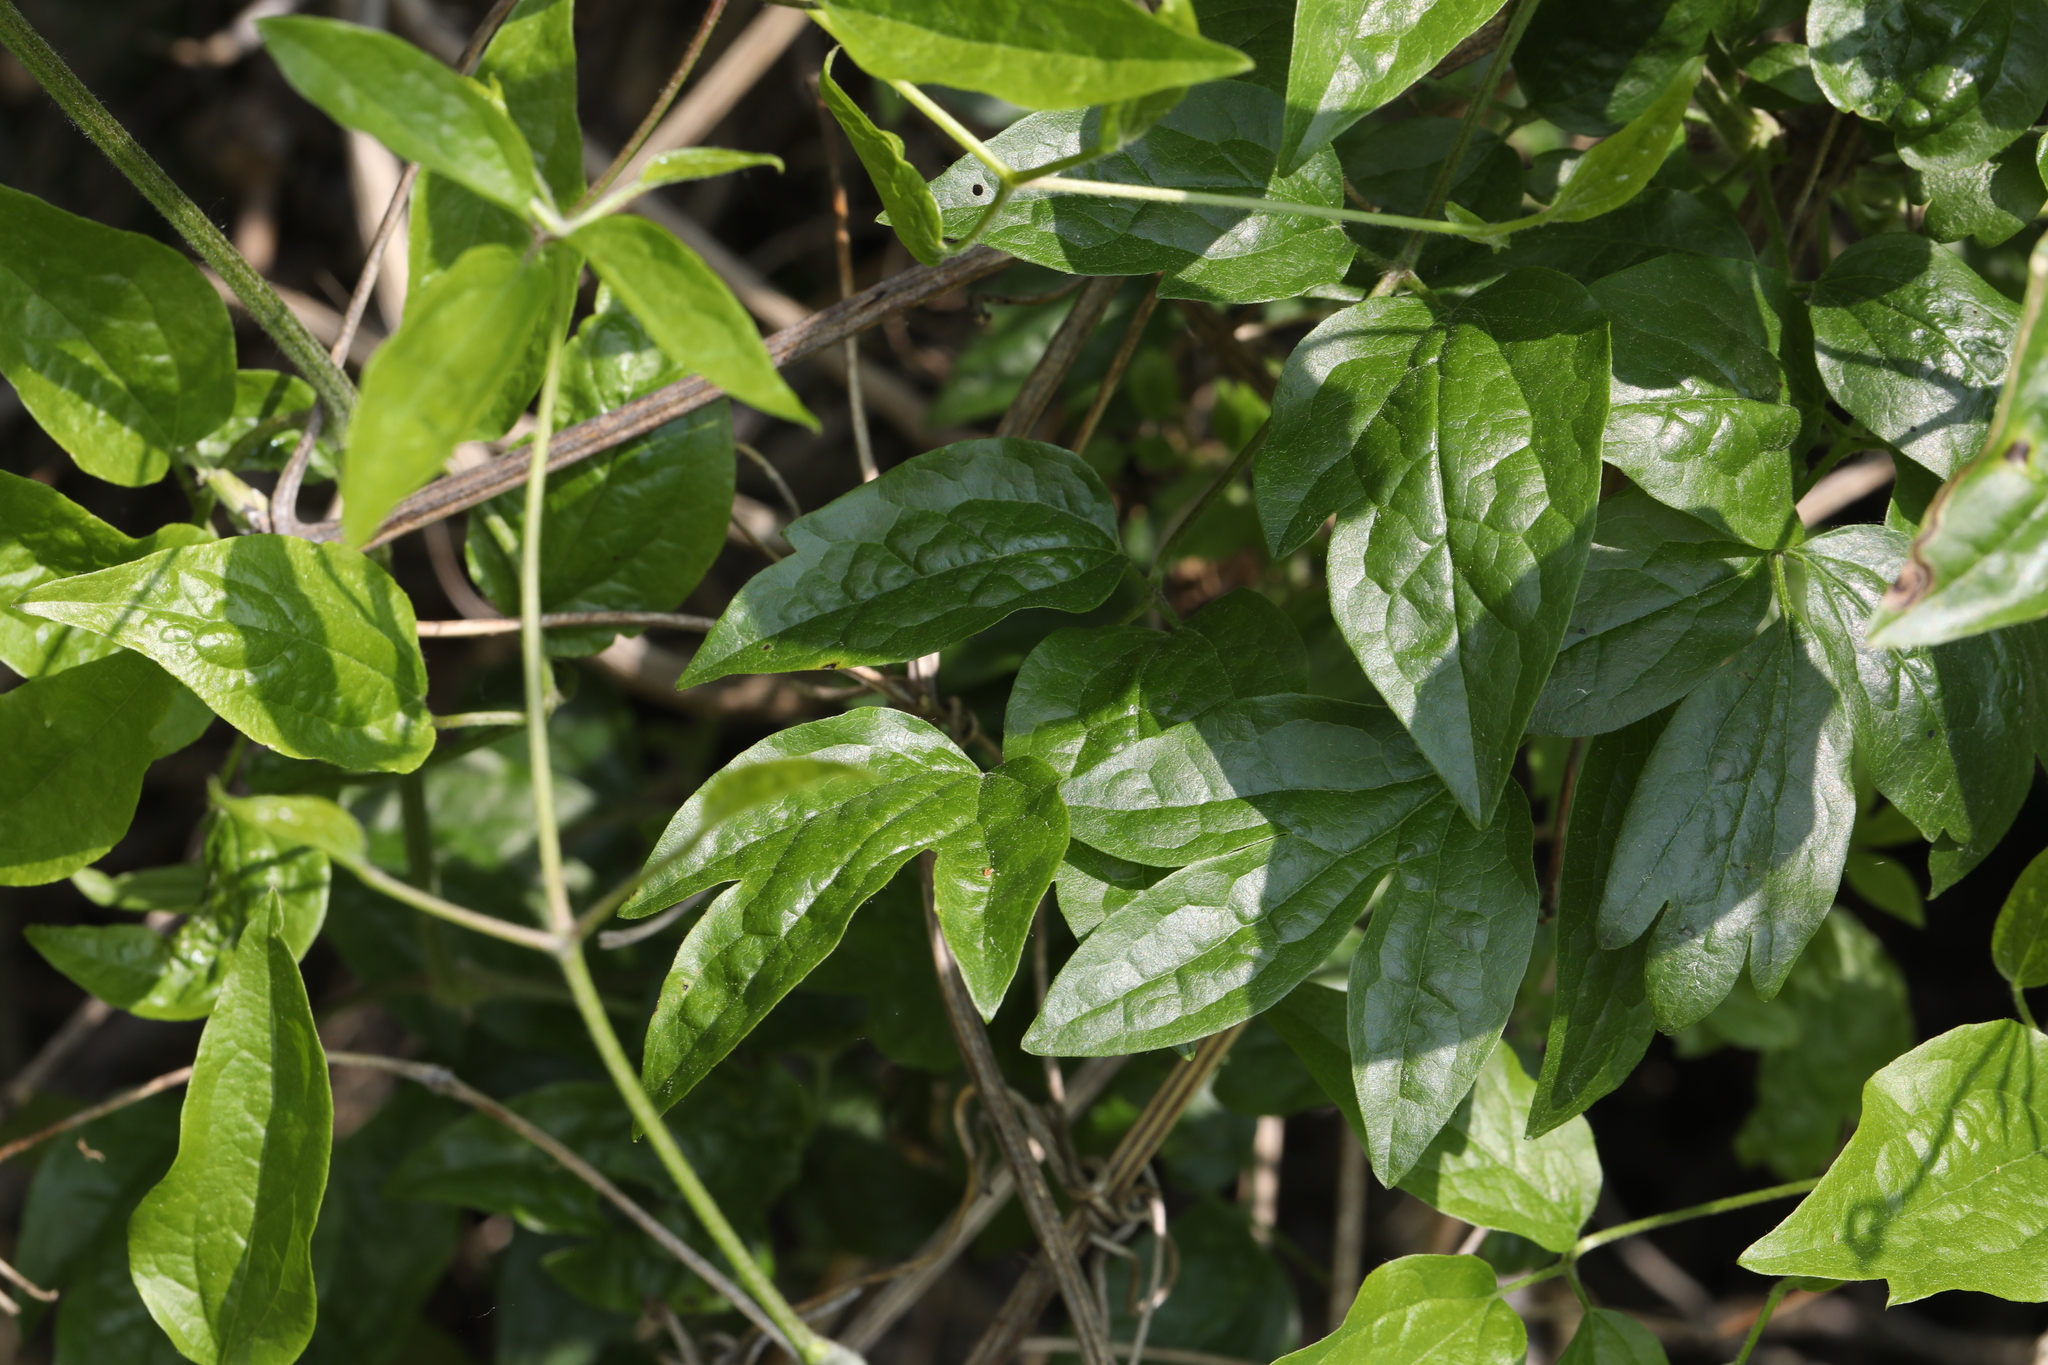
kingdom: Plantae
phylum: Tracheophyta
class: Magnoliopsida
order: Ranunculales
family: Ranunculaceae
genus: Clematis
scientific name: Clematis vitalba
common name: Evergreen clematis
